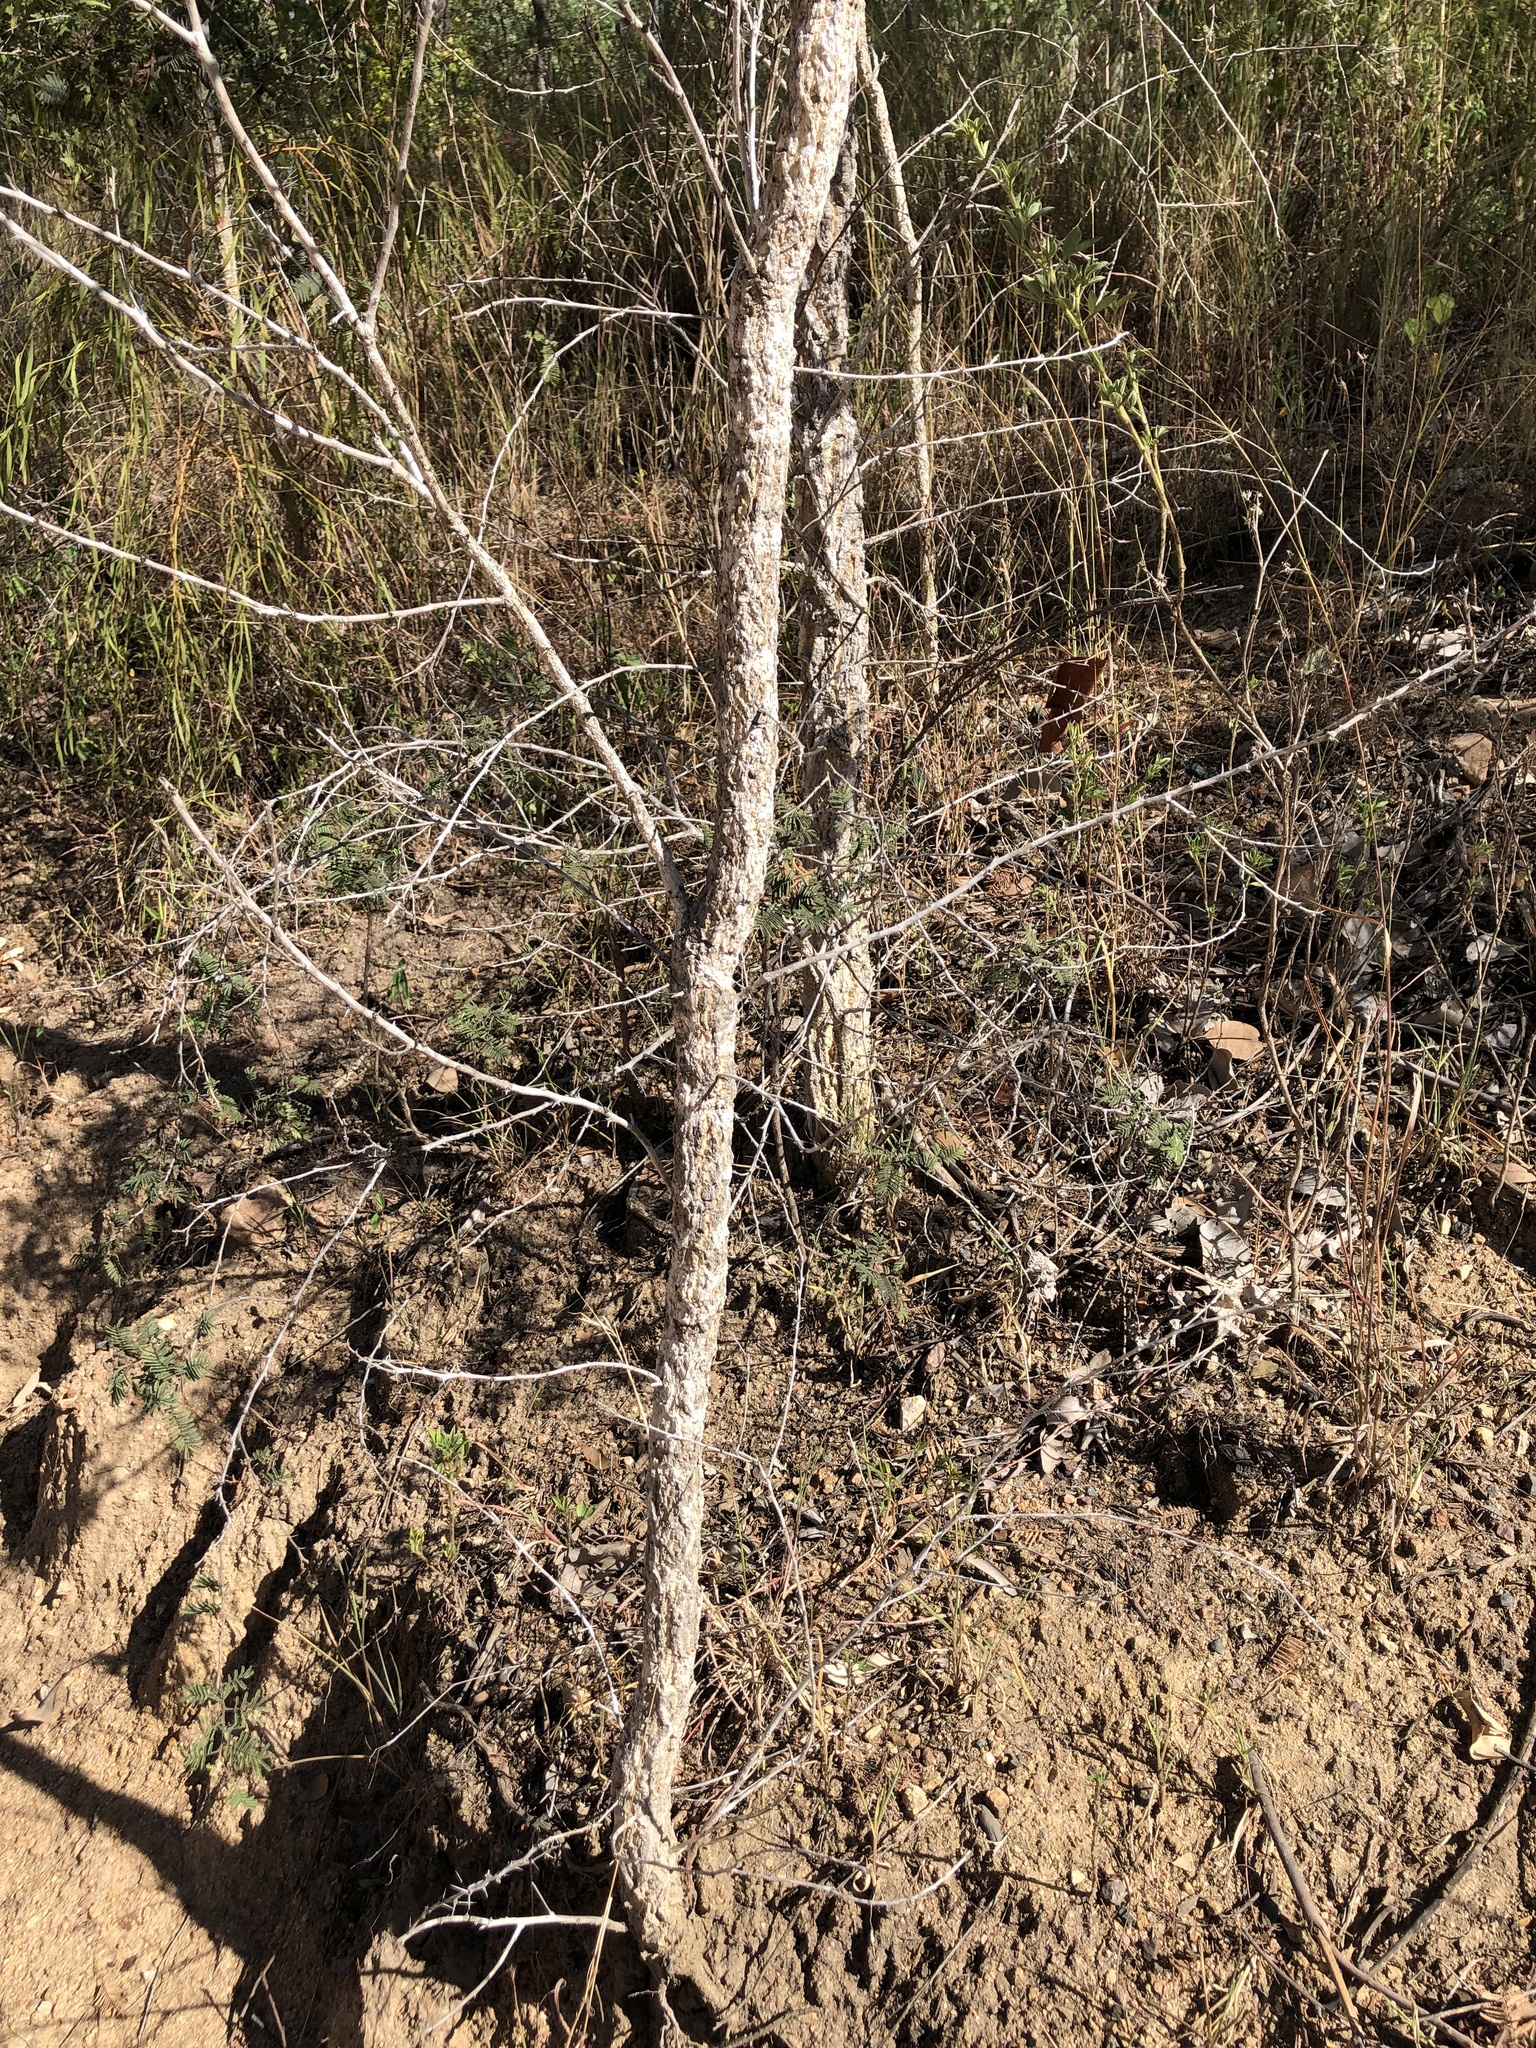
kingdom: Plantae
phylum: Tracheophyta
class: Magnoliopsida
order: Fabales
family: Fabaceae
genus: Vachellia
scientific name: Vachellia bidwillii
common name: Corkwood wattle
